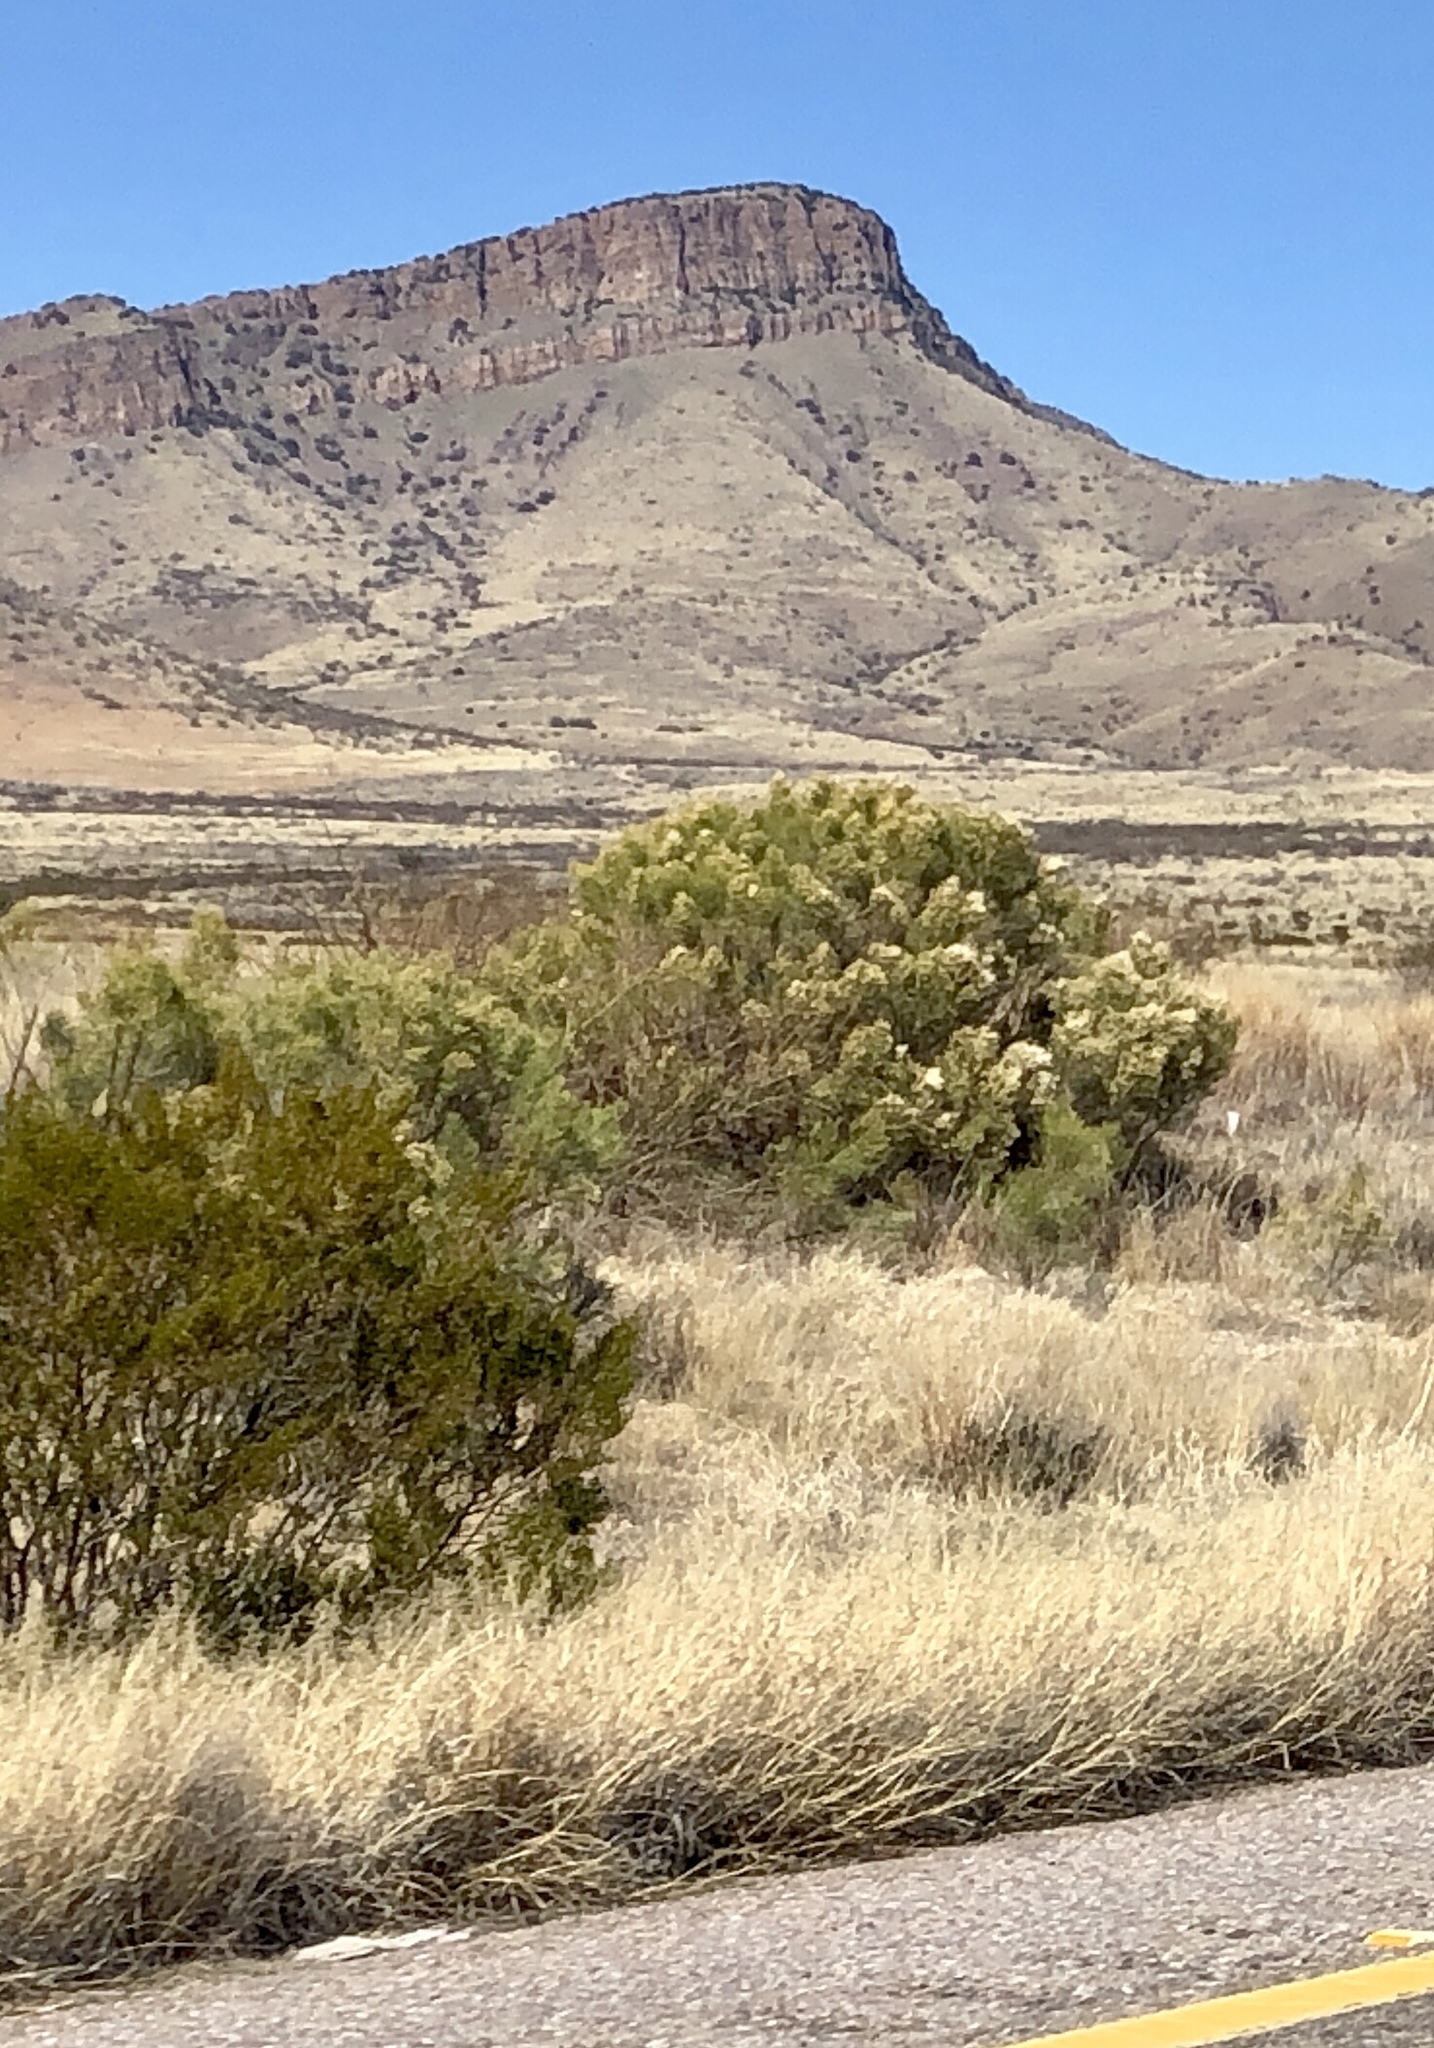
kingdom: Plantae
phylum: Tracheophyta
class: Magnoliopsida
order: Asterales
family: Asteraceae
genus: Baccharis
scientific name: Baccharis sarothroides
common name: Desert-broom
